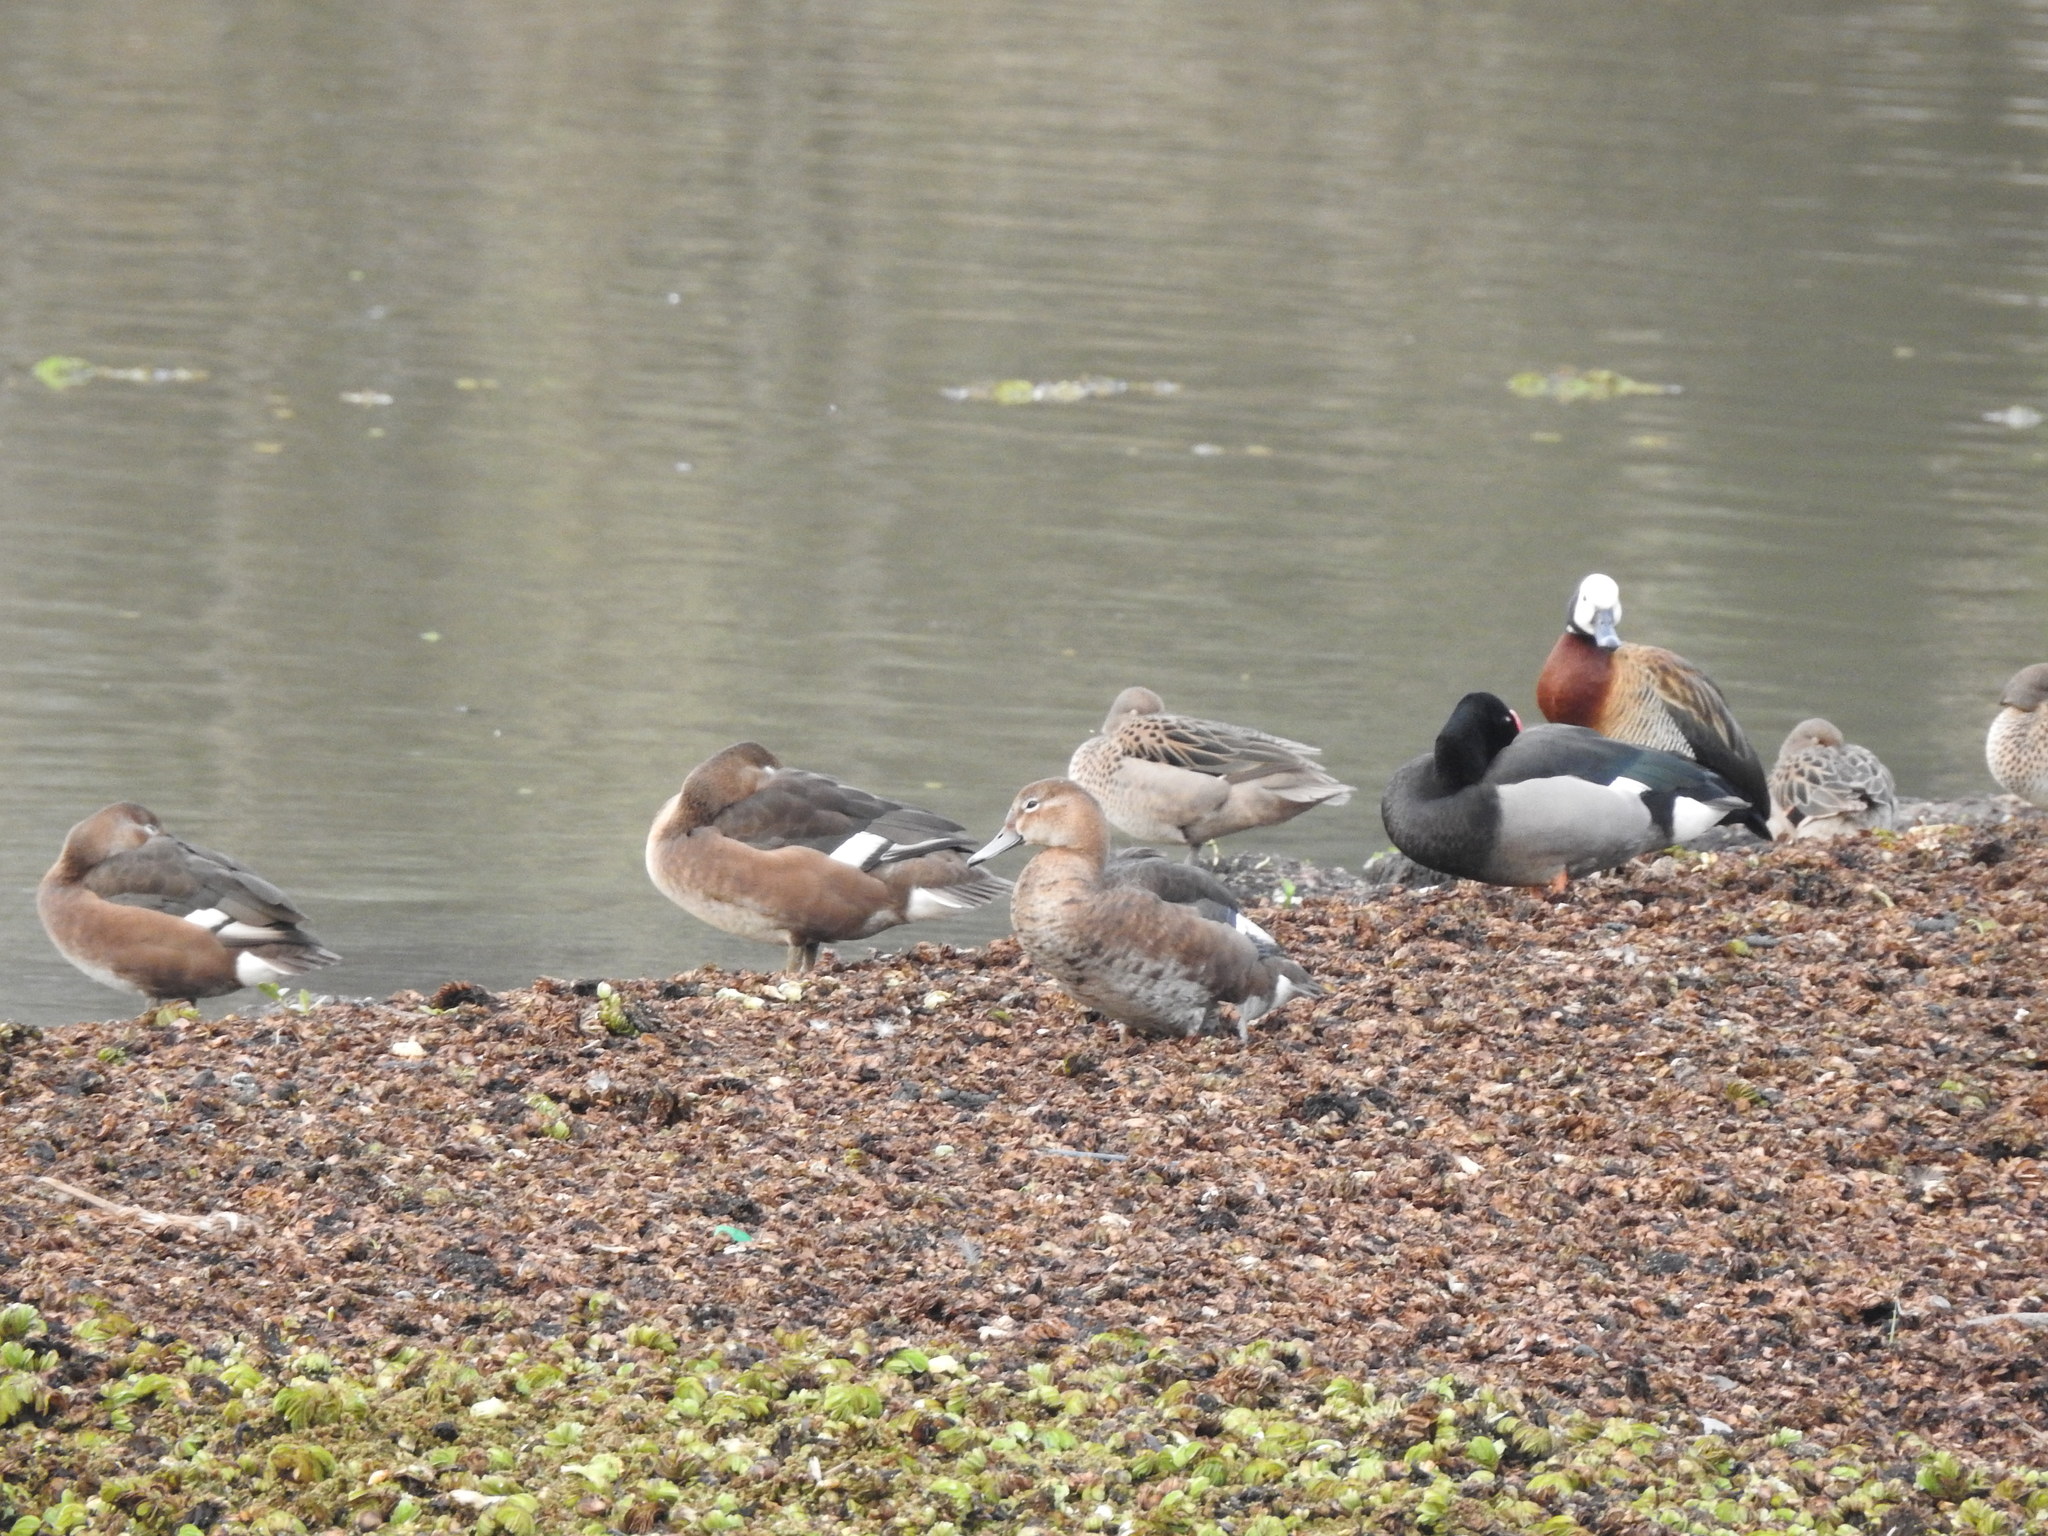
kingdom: Animalia
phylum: Chordata
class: Aves
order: Anseriformes
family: Anatidae
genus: Dendrocygna
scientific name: Dendrocygna viduata
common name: White-faced whistling duck
